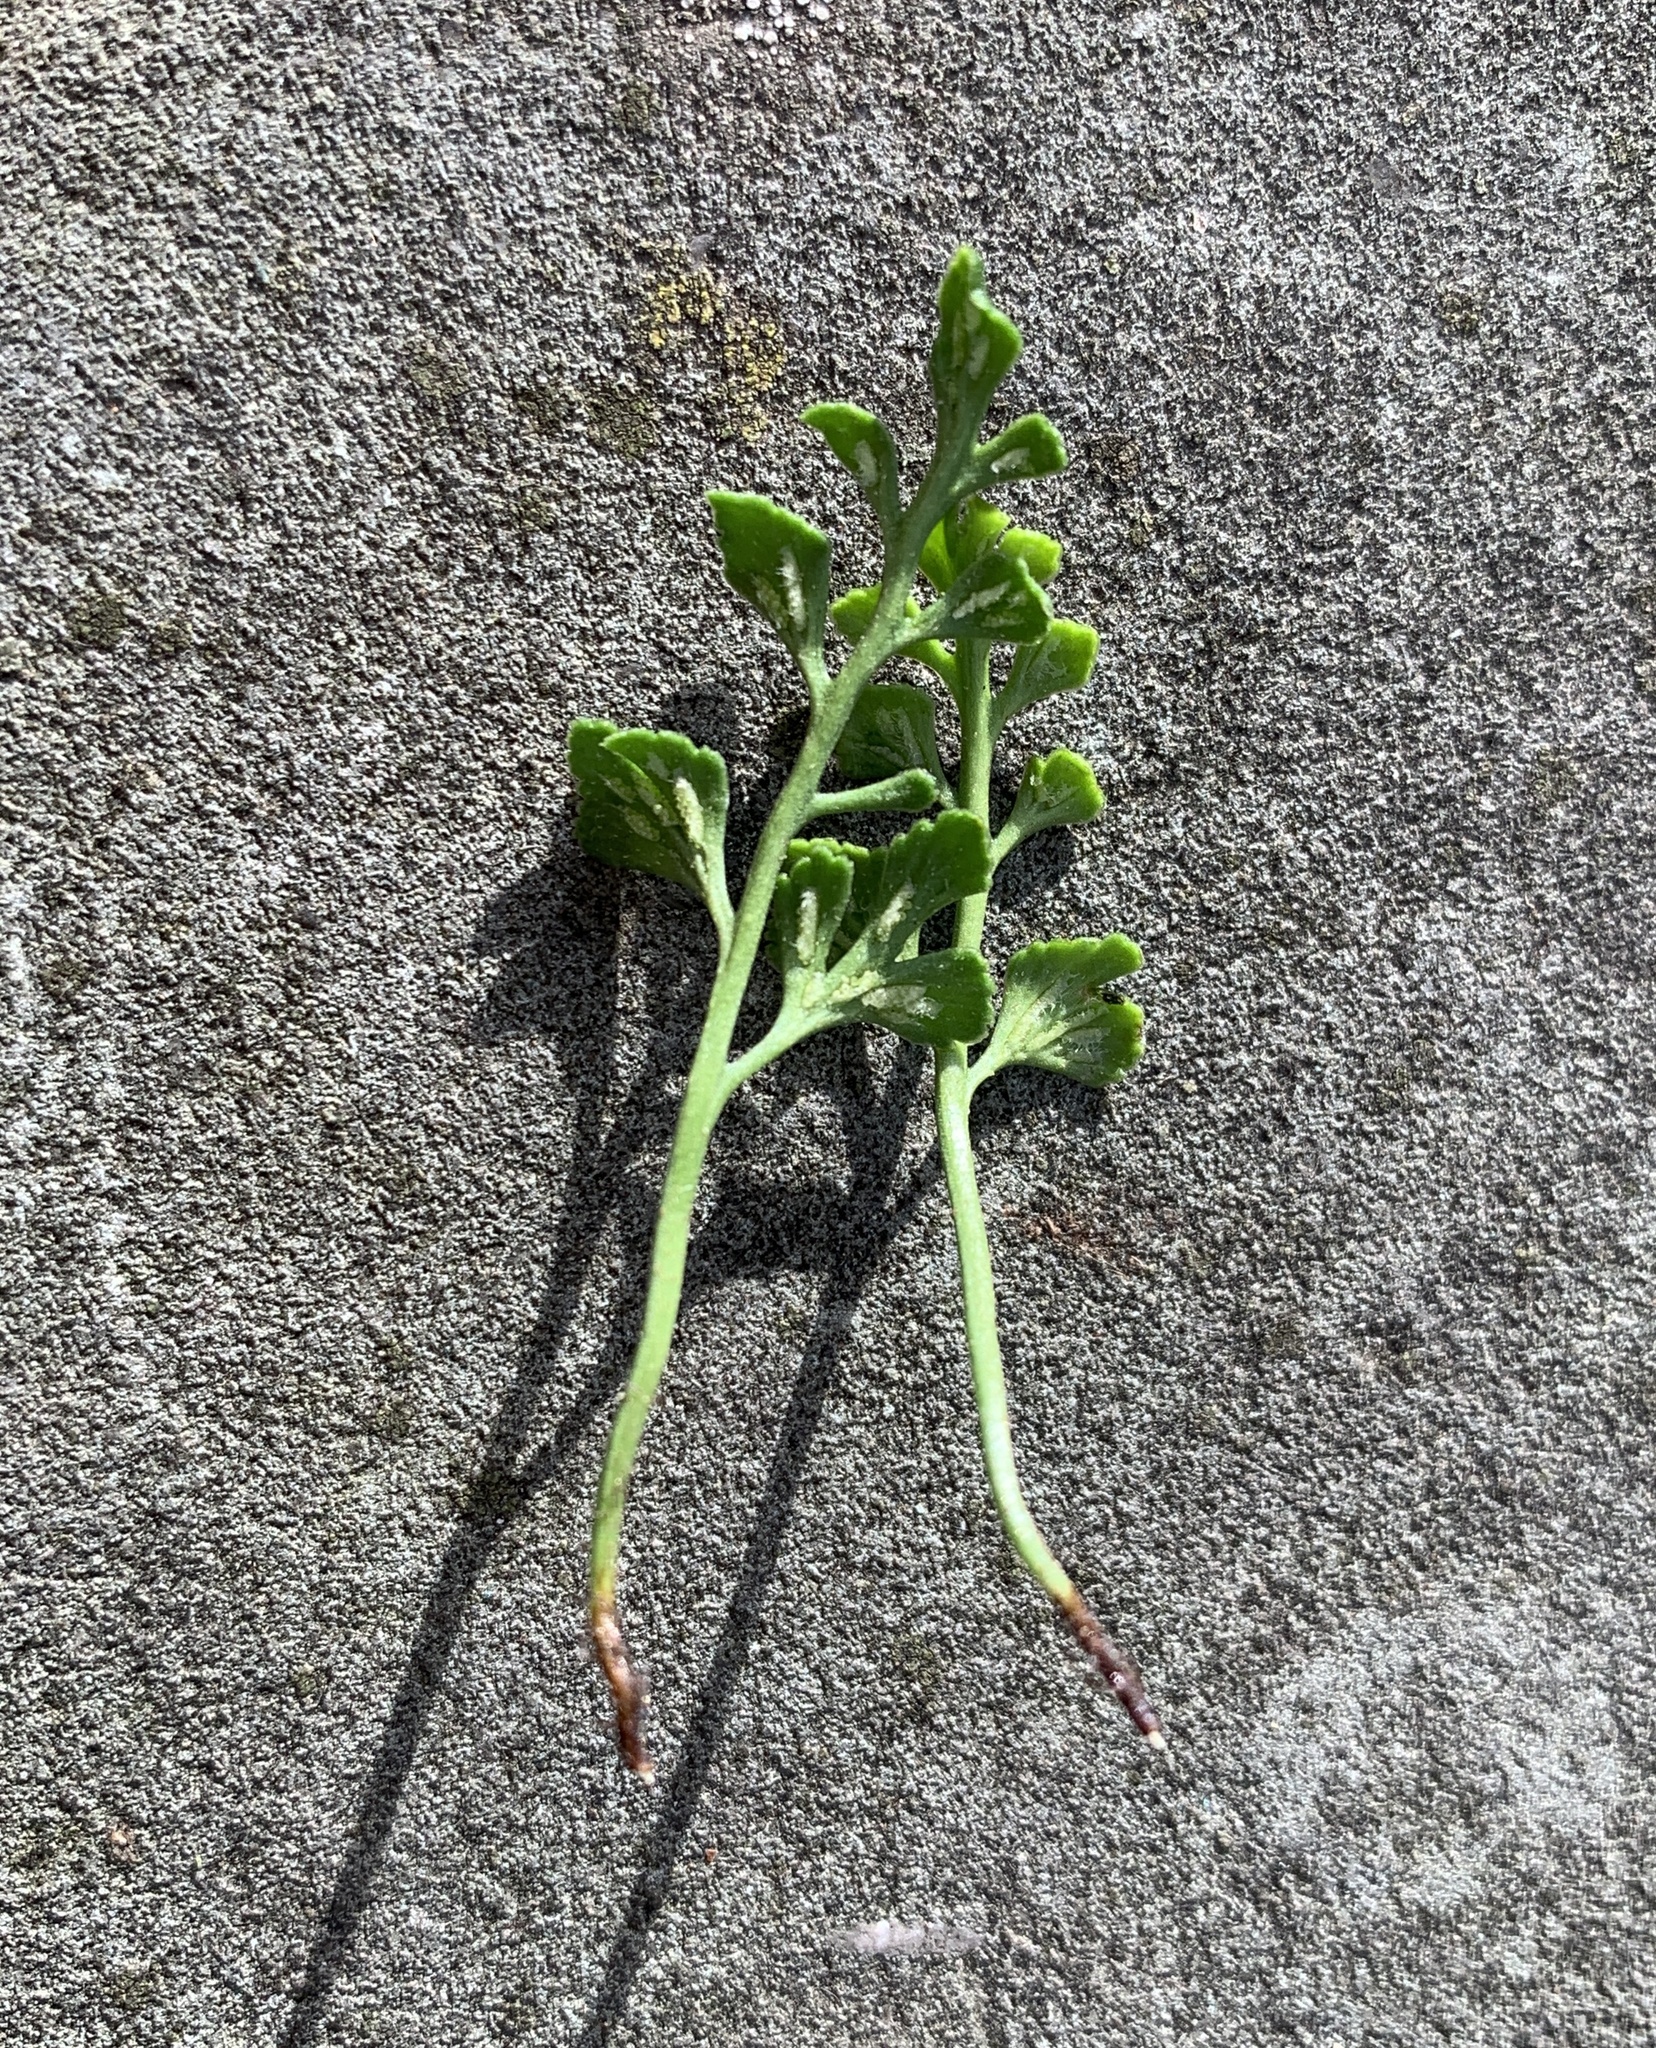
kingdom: Plantae
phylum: Tracheophyta
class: Polypodiopsida
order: Polypodiales
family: Aspleniaceae
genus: Asplenium
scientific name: Asplenium ruta-muraria
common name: Wall-rue
